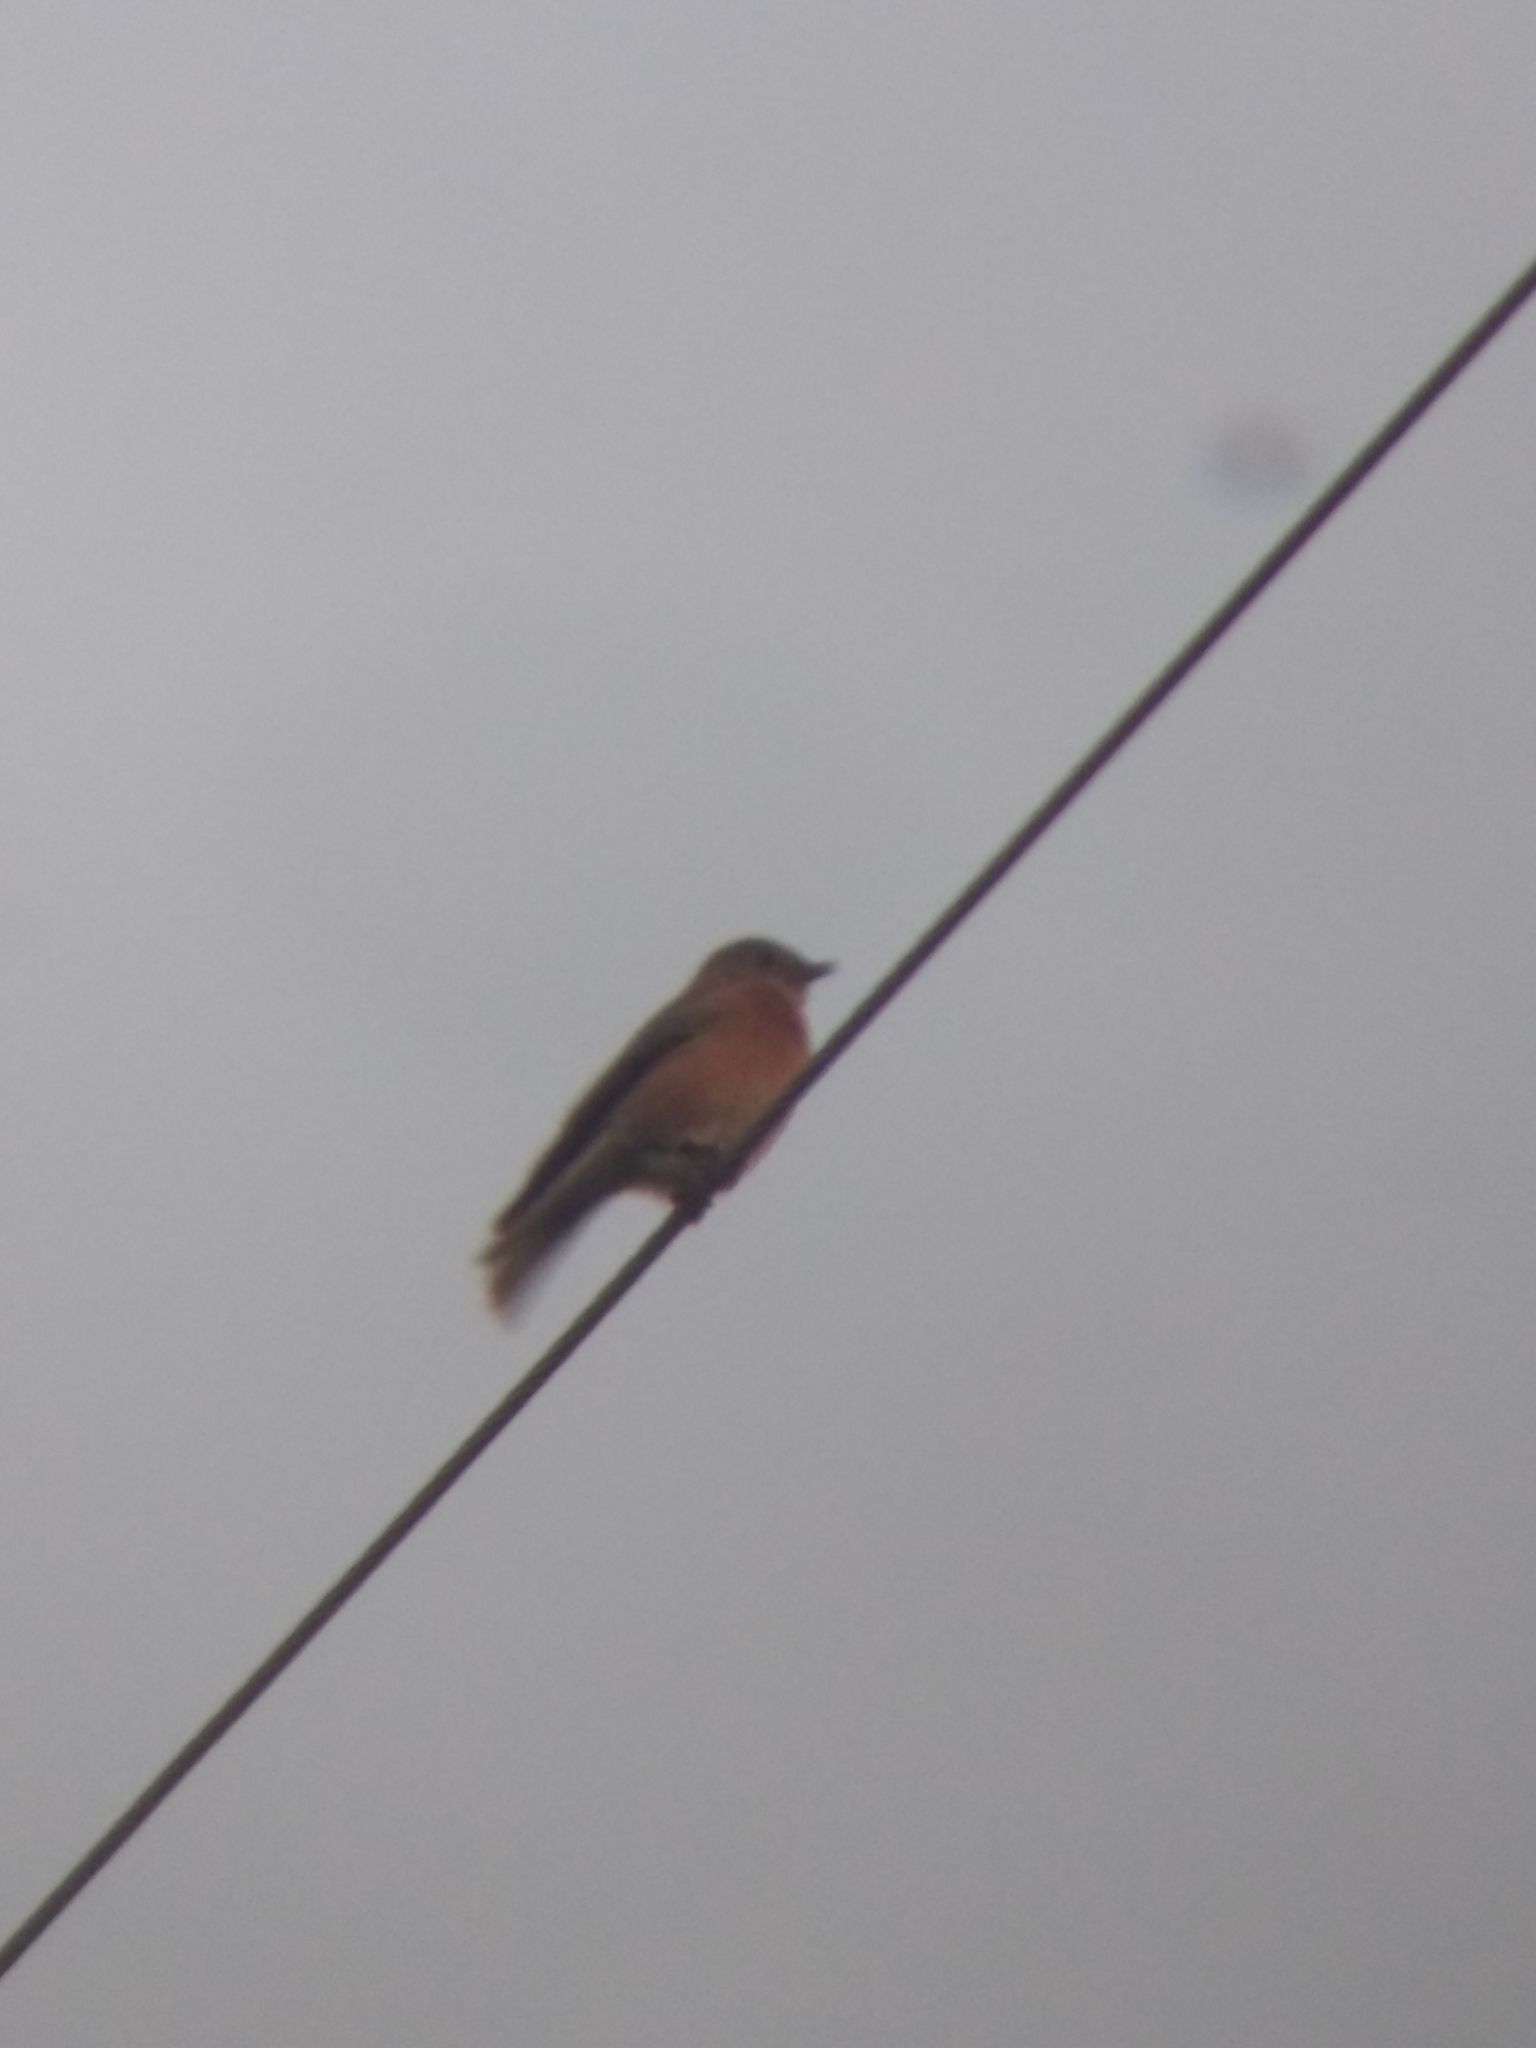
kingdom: Animalia
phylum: Chordata
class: Aves
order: Passeriformes
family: Turdidae
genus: Sialia
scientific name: Sialia mexicana
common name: Western bluebird
